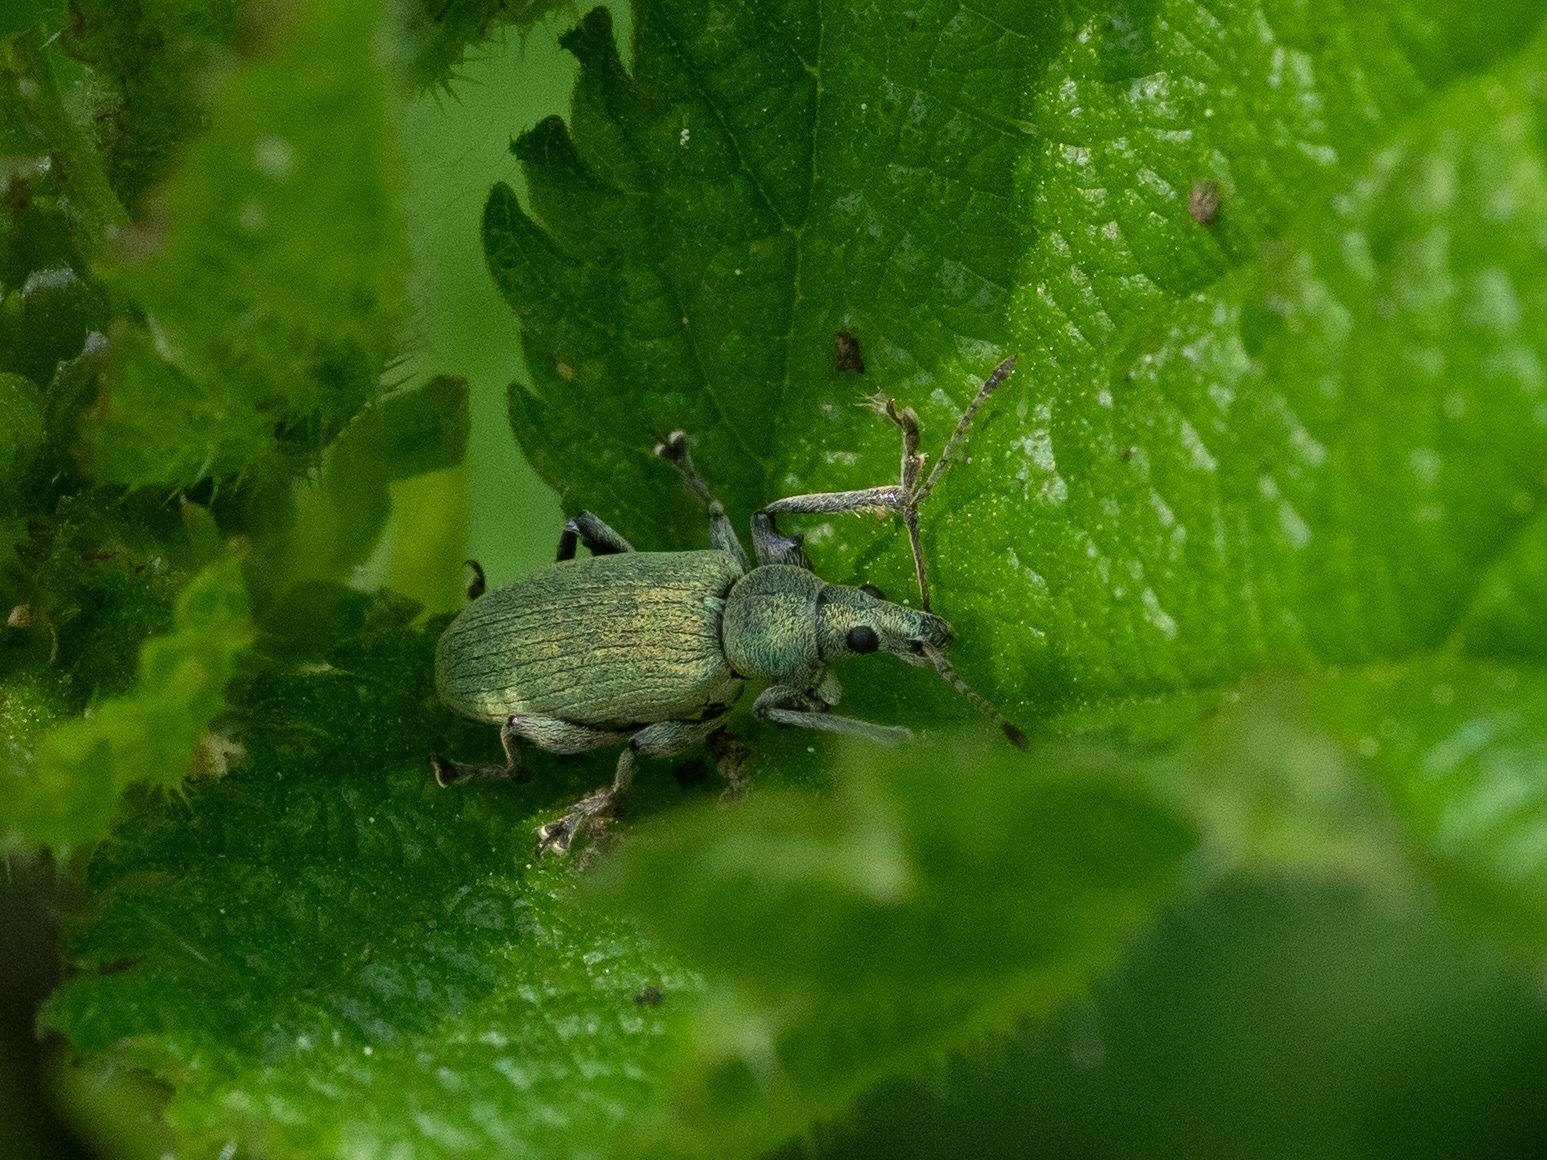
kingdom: Animalia
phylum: Arthropoda
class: Insecta
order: Coleoptera
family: Curculionidae
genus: Phyllobius
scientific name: Phyllobius pomaceus
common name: Green nettle weevil
